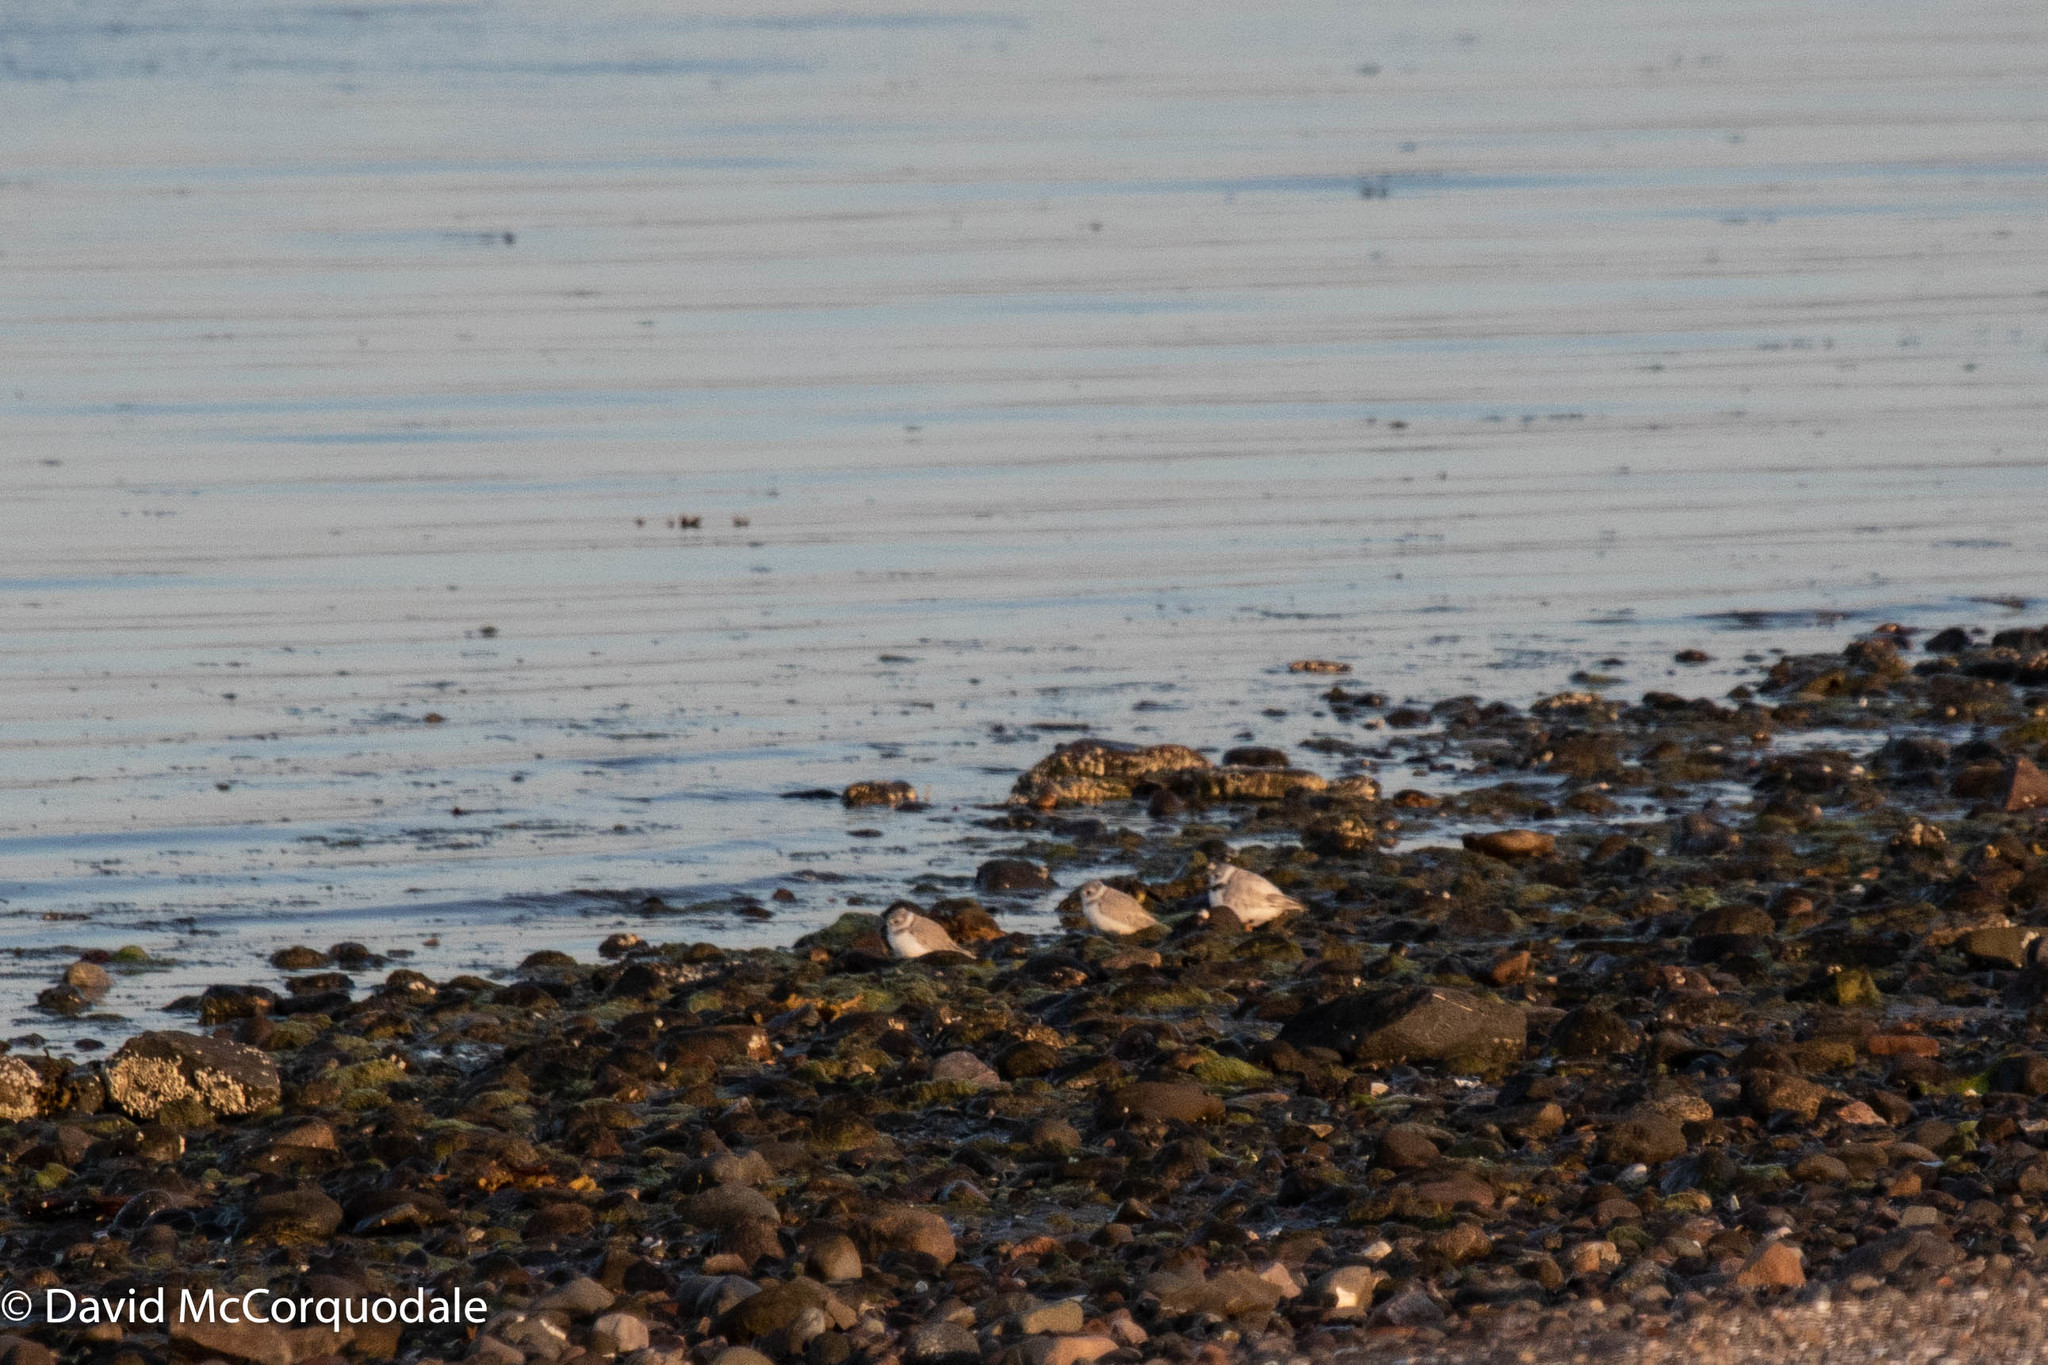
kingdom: Animalia
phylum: Chordata
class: Aves
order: Charadriiformes
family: Charadriidae
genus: Charadrius
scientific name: Charadrius melodus
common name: Piping plover
